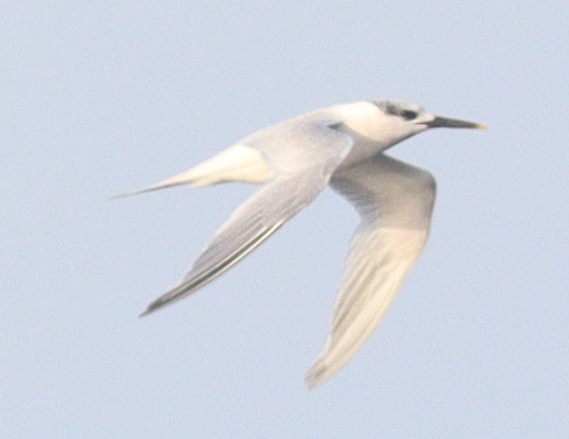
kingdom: Animalia
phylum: Chordata
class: Aves
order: Charadriiformes
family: Laridae
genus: Thalasseus
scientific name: Thalasseus sandvicensis
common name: Sandwich tern
